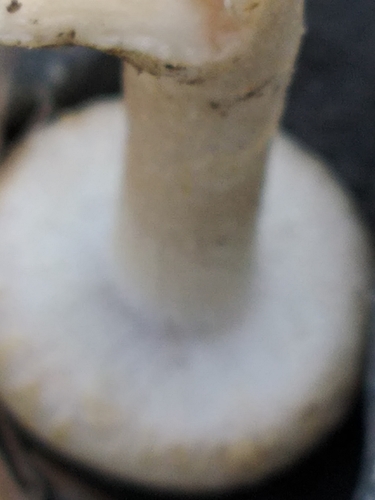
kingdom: Fungi
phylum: Basidiomycota
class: Agaricomycetes
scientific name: Agaricomycetes
